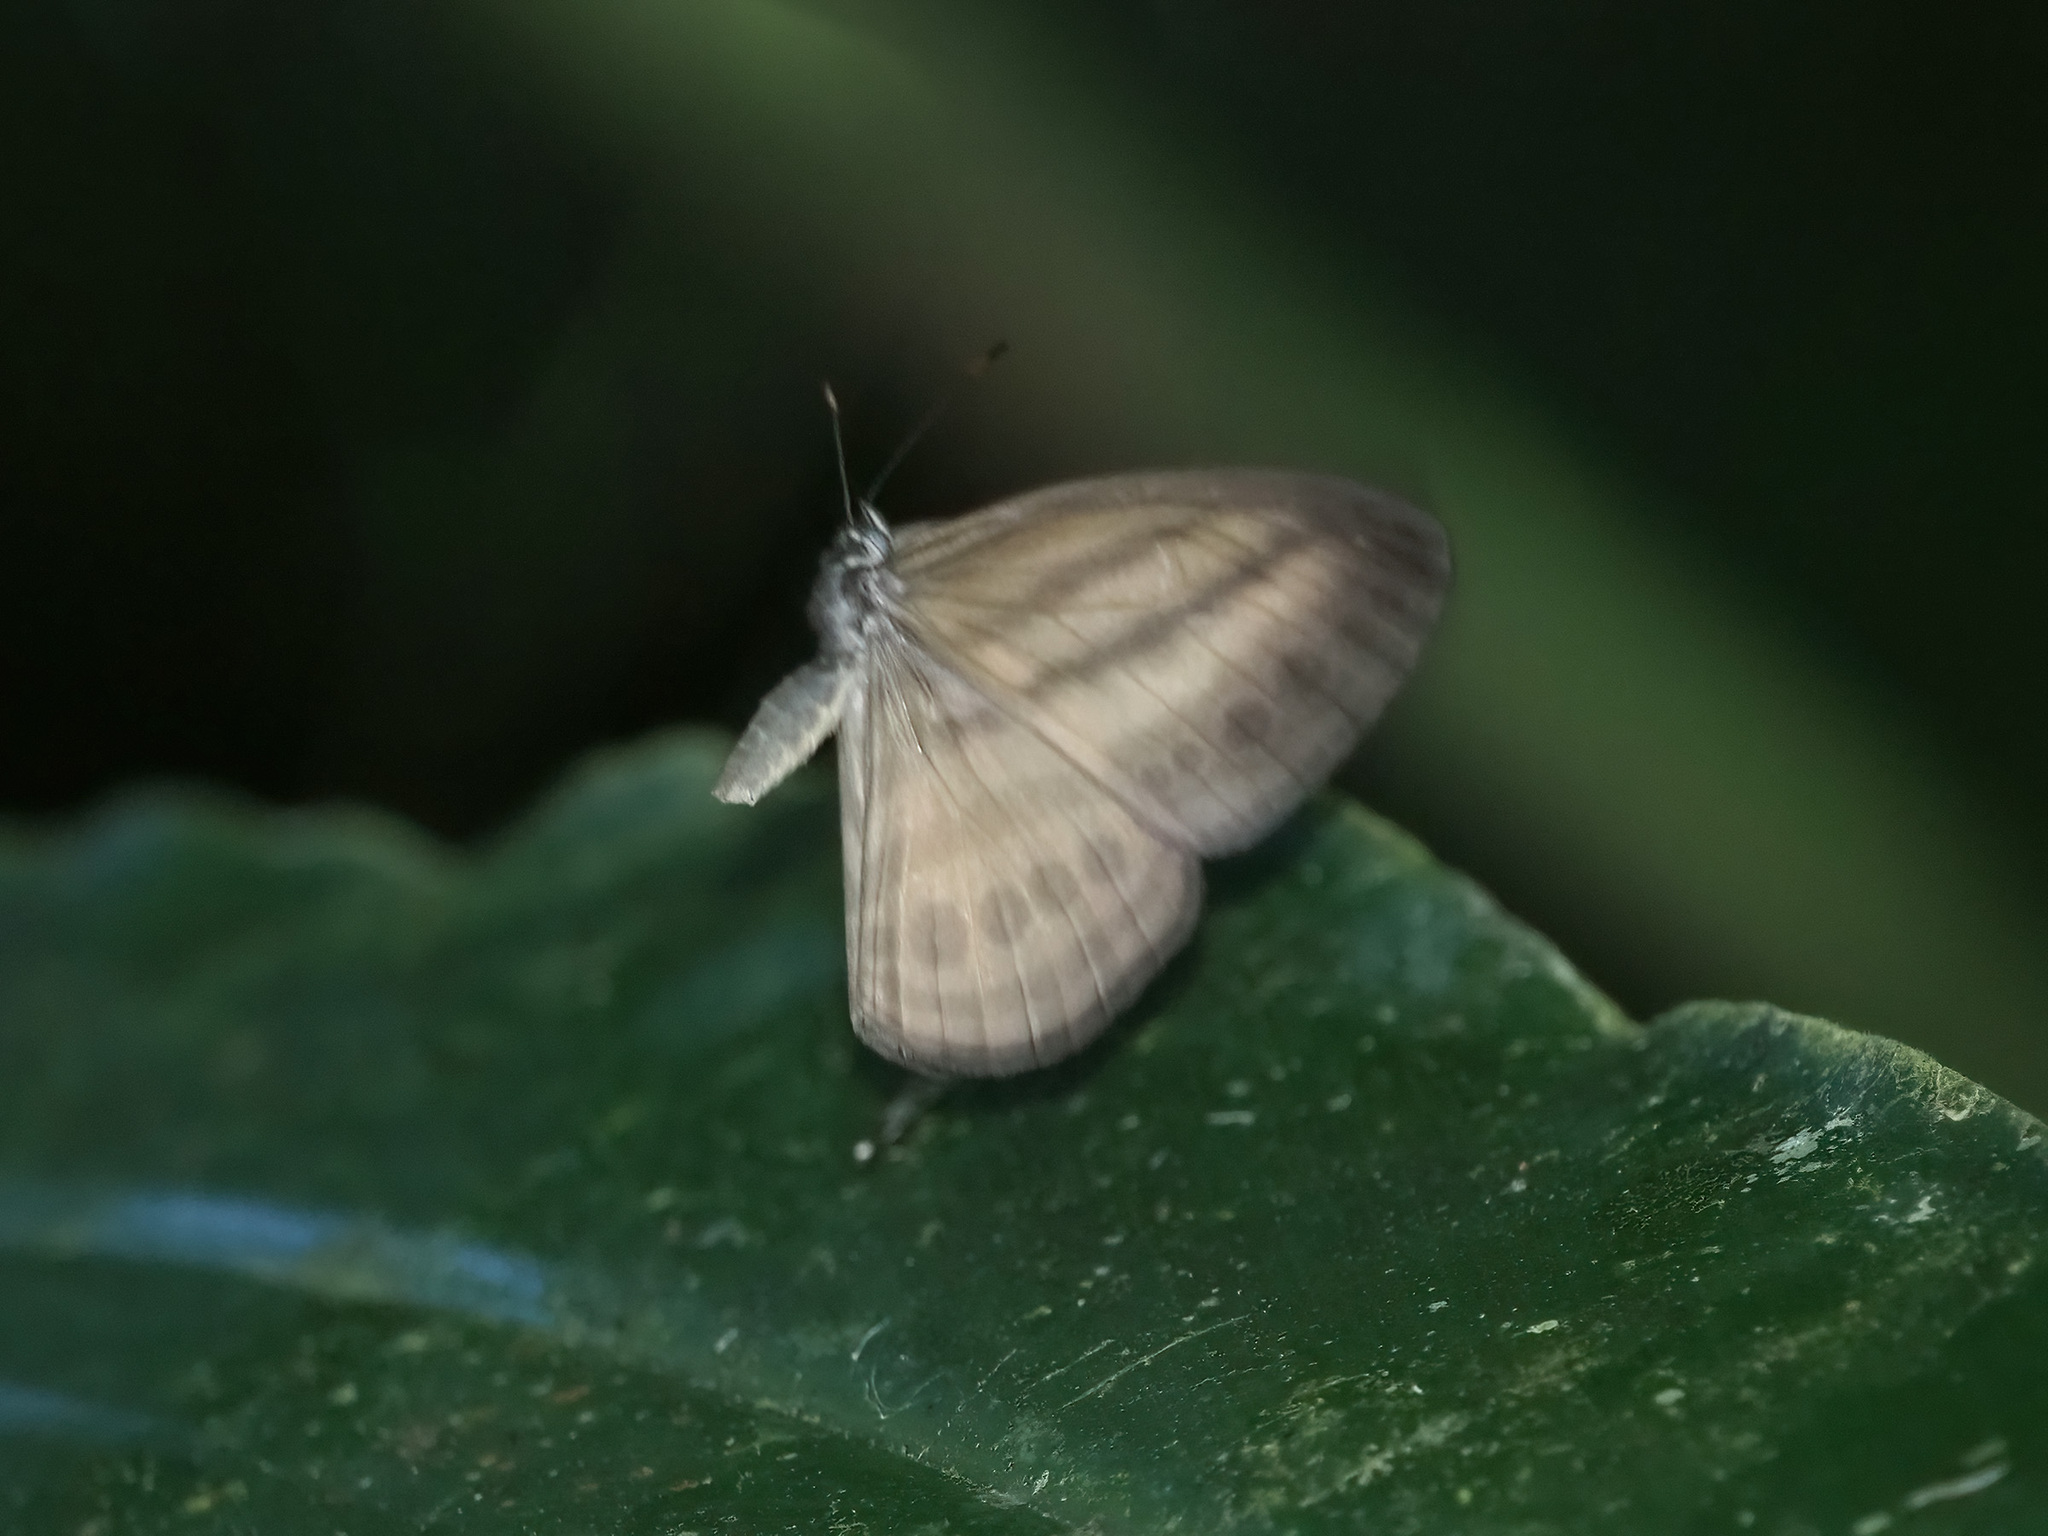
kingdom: Animalia
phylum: Arthropoda
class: Insecta
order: Lepidoptera
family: Nymphalidae
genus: Ragadia
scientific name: Ragadia makuta
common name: Striped ringlet
